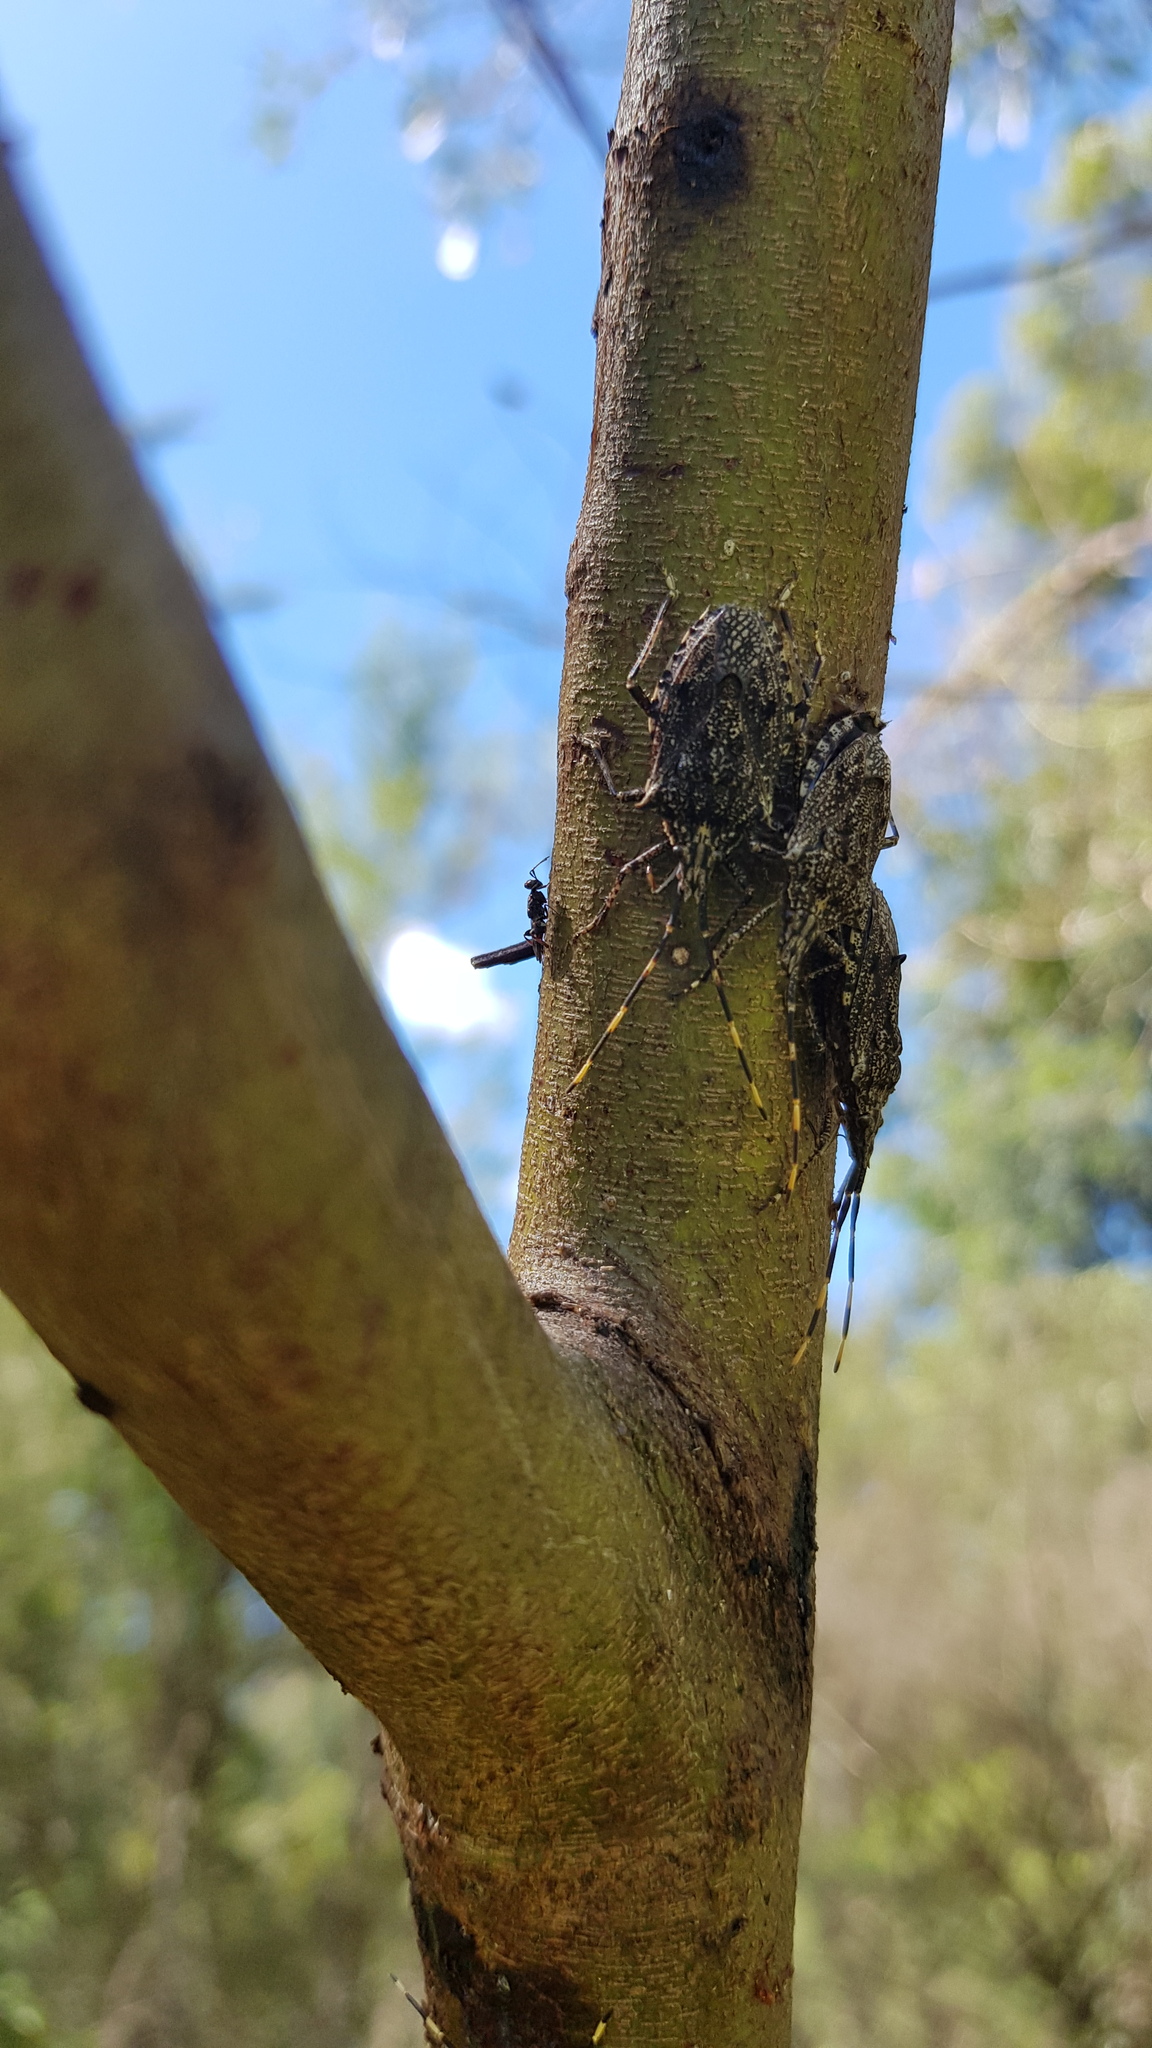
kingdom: Animalia
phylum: Arthropoda
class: Insecta
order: Hemiptera
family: Pentatomidae
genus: Alcaeus
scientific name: Alcaeus
